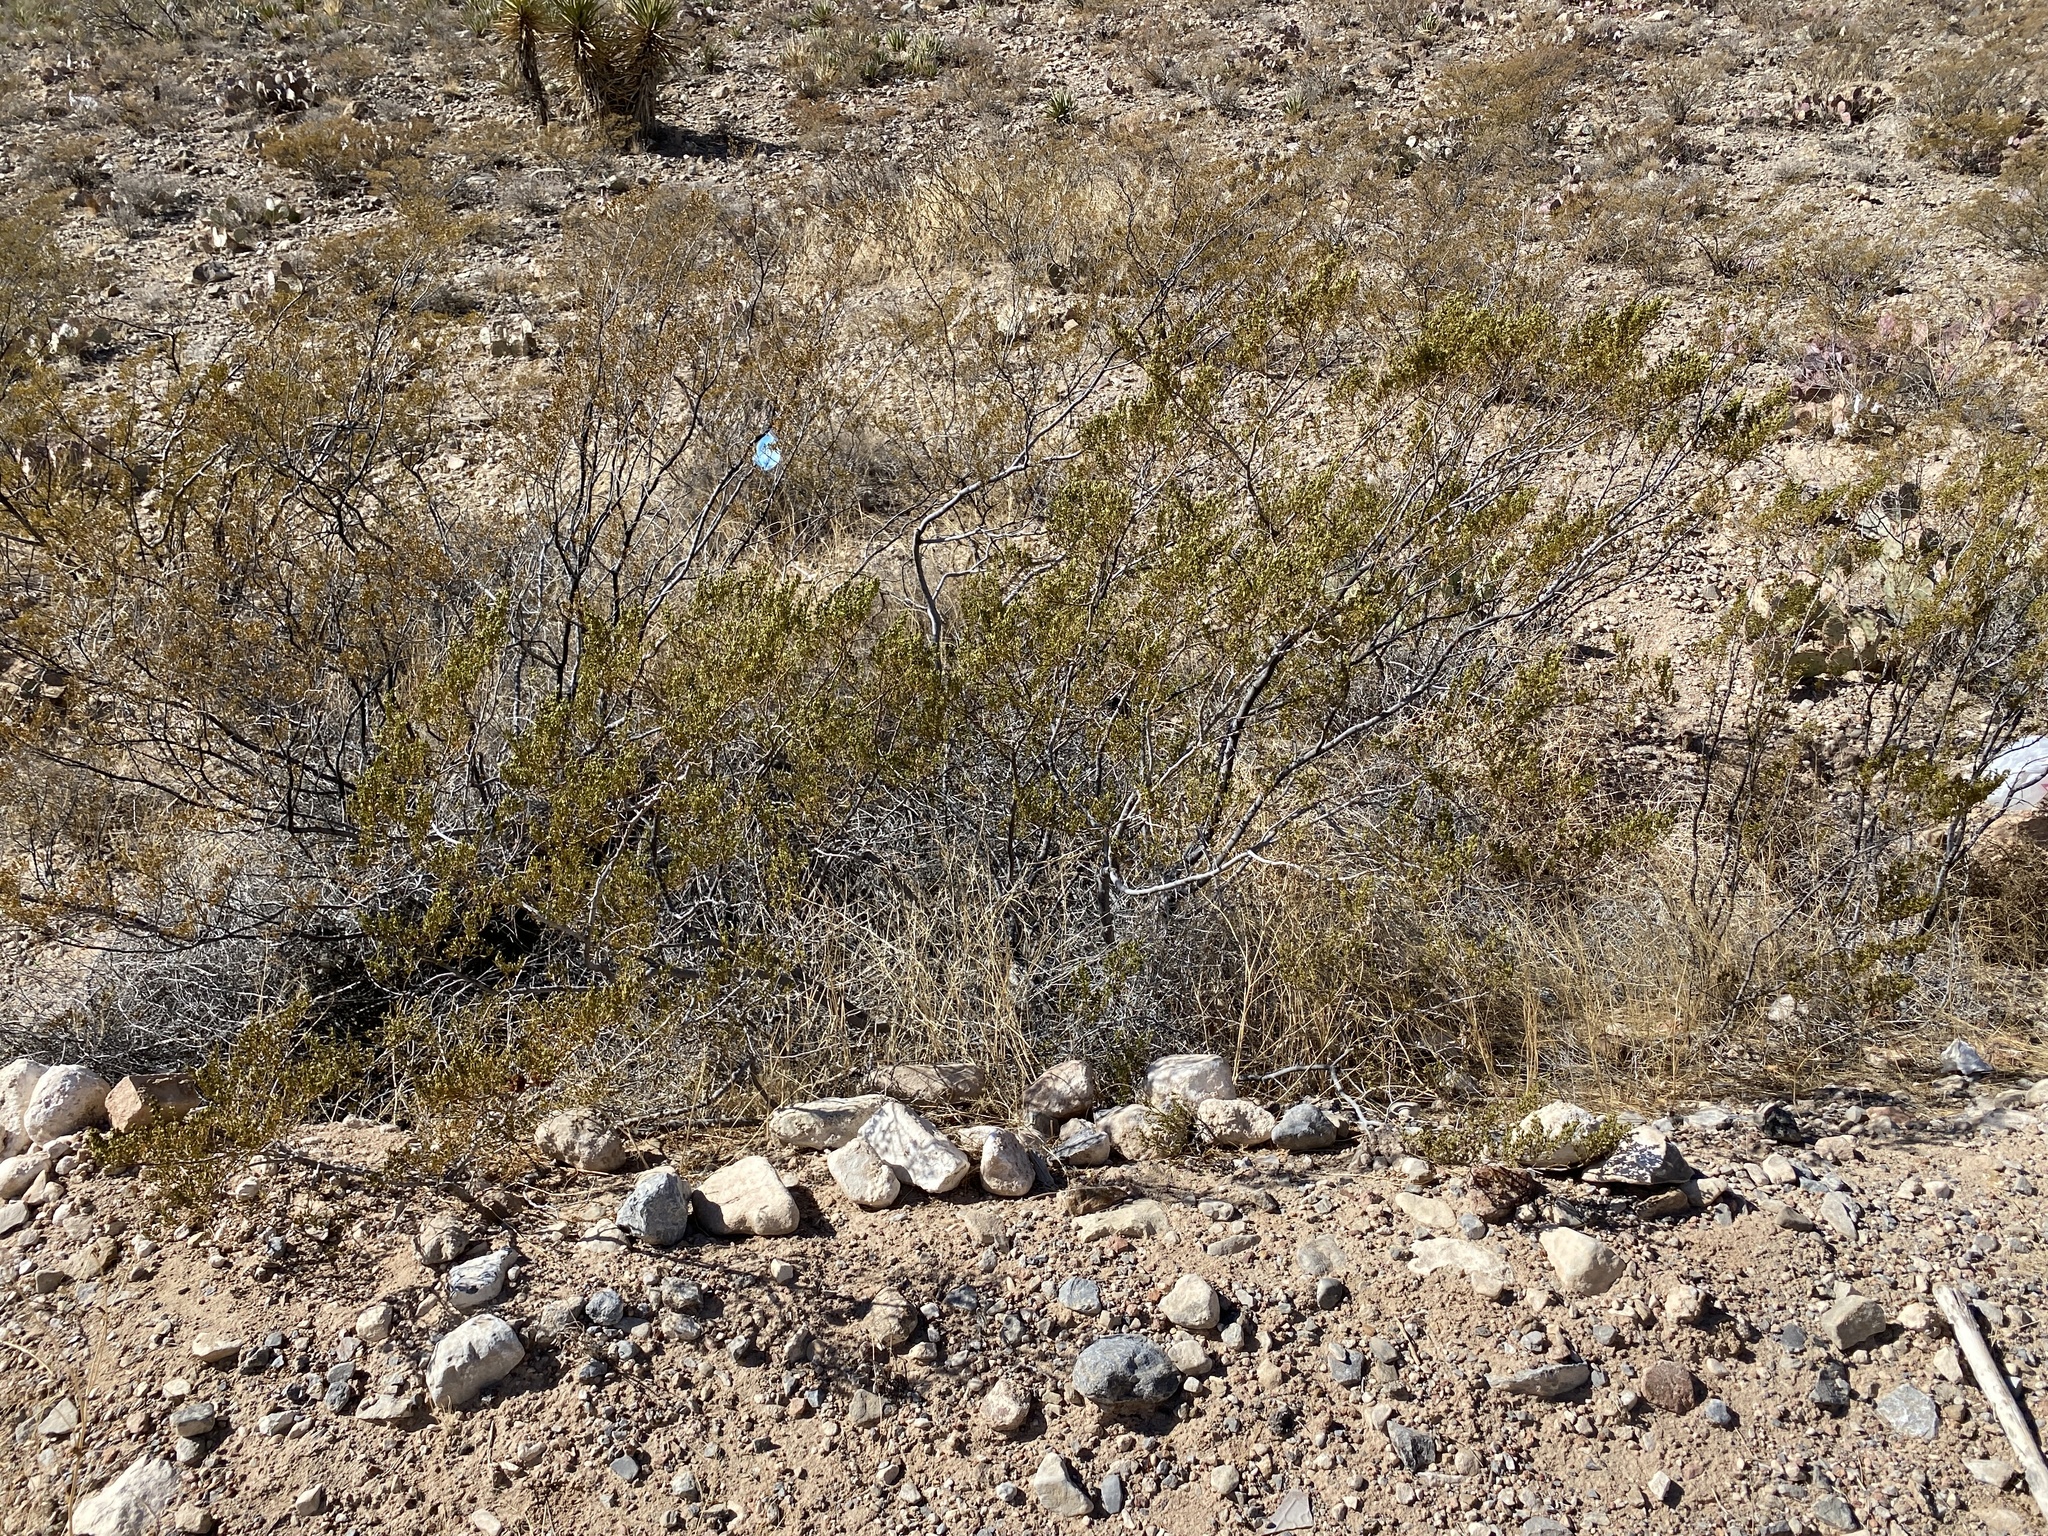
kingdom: Plantae
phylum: Tracheophyta
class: Magnoliopsida
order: Zygophyllales
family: Zygophyllaceae
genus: Larrea
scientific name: Larrea tridentata
